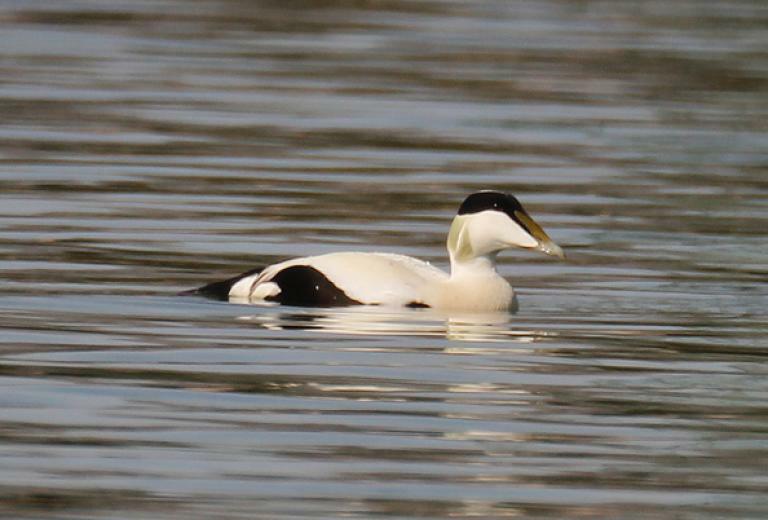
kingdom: Animalia
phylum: Chordata
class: Aves
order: Anseriformes
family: Anatidae
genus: Somateria
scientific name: Somateria mollissima
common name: Common eider
